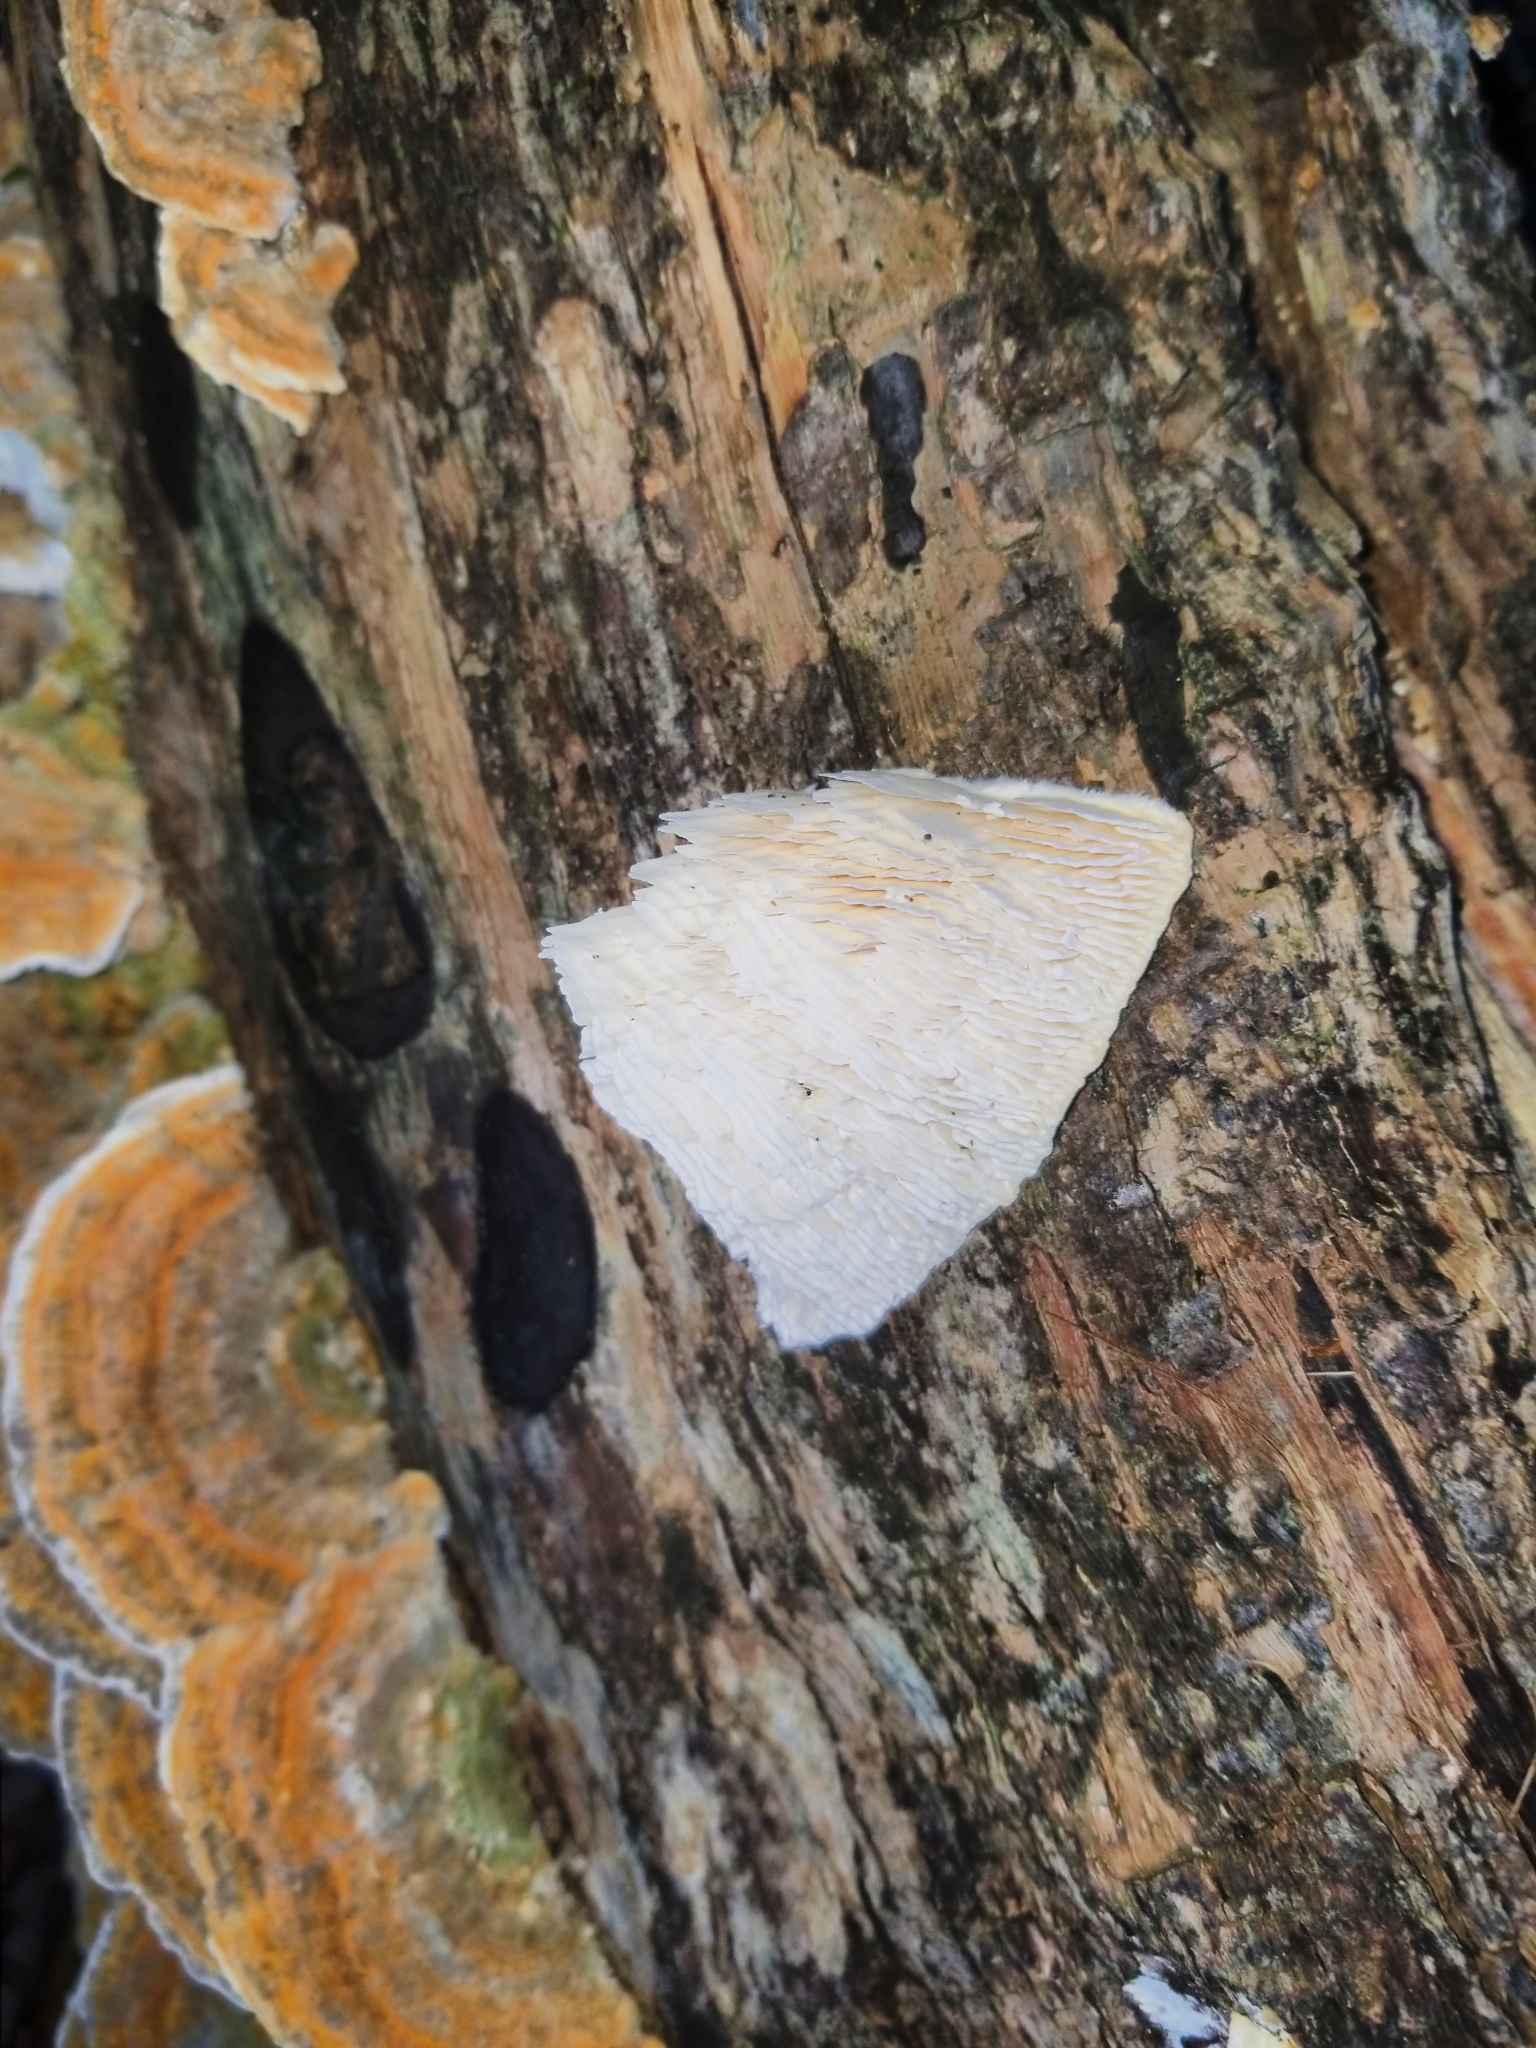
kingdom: Fungi
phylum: Basidiomycota
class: Agaricomycetes
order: Polyporales
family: Polyporaceae
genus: Lenzites
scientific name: Lenzites betulinus
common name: Birch mazegill
